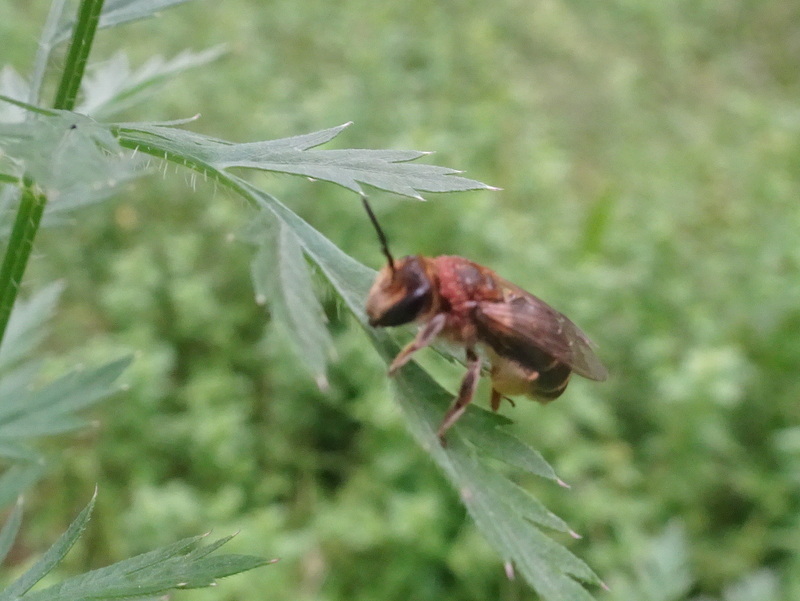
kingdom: Animalia
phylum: Arthropoda
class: Insecta
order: Hymenoptera
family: Andrenidae
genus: Andrena
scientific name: Andrena wilkella
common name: Wilke's mining bee
